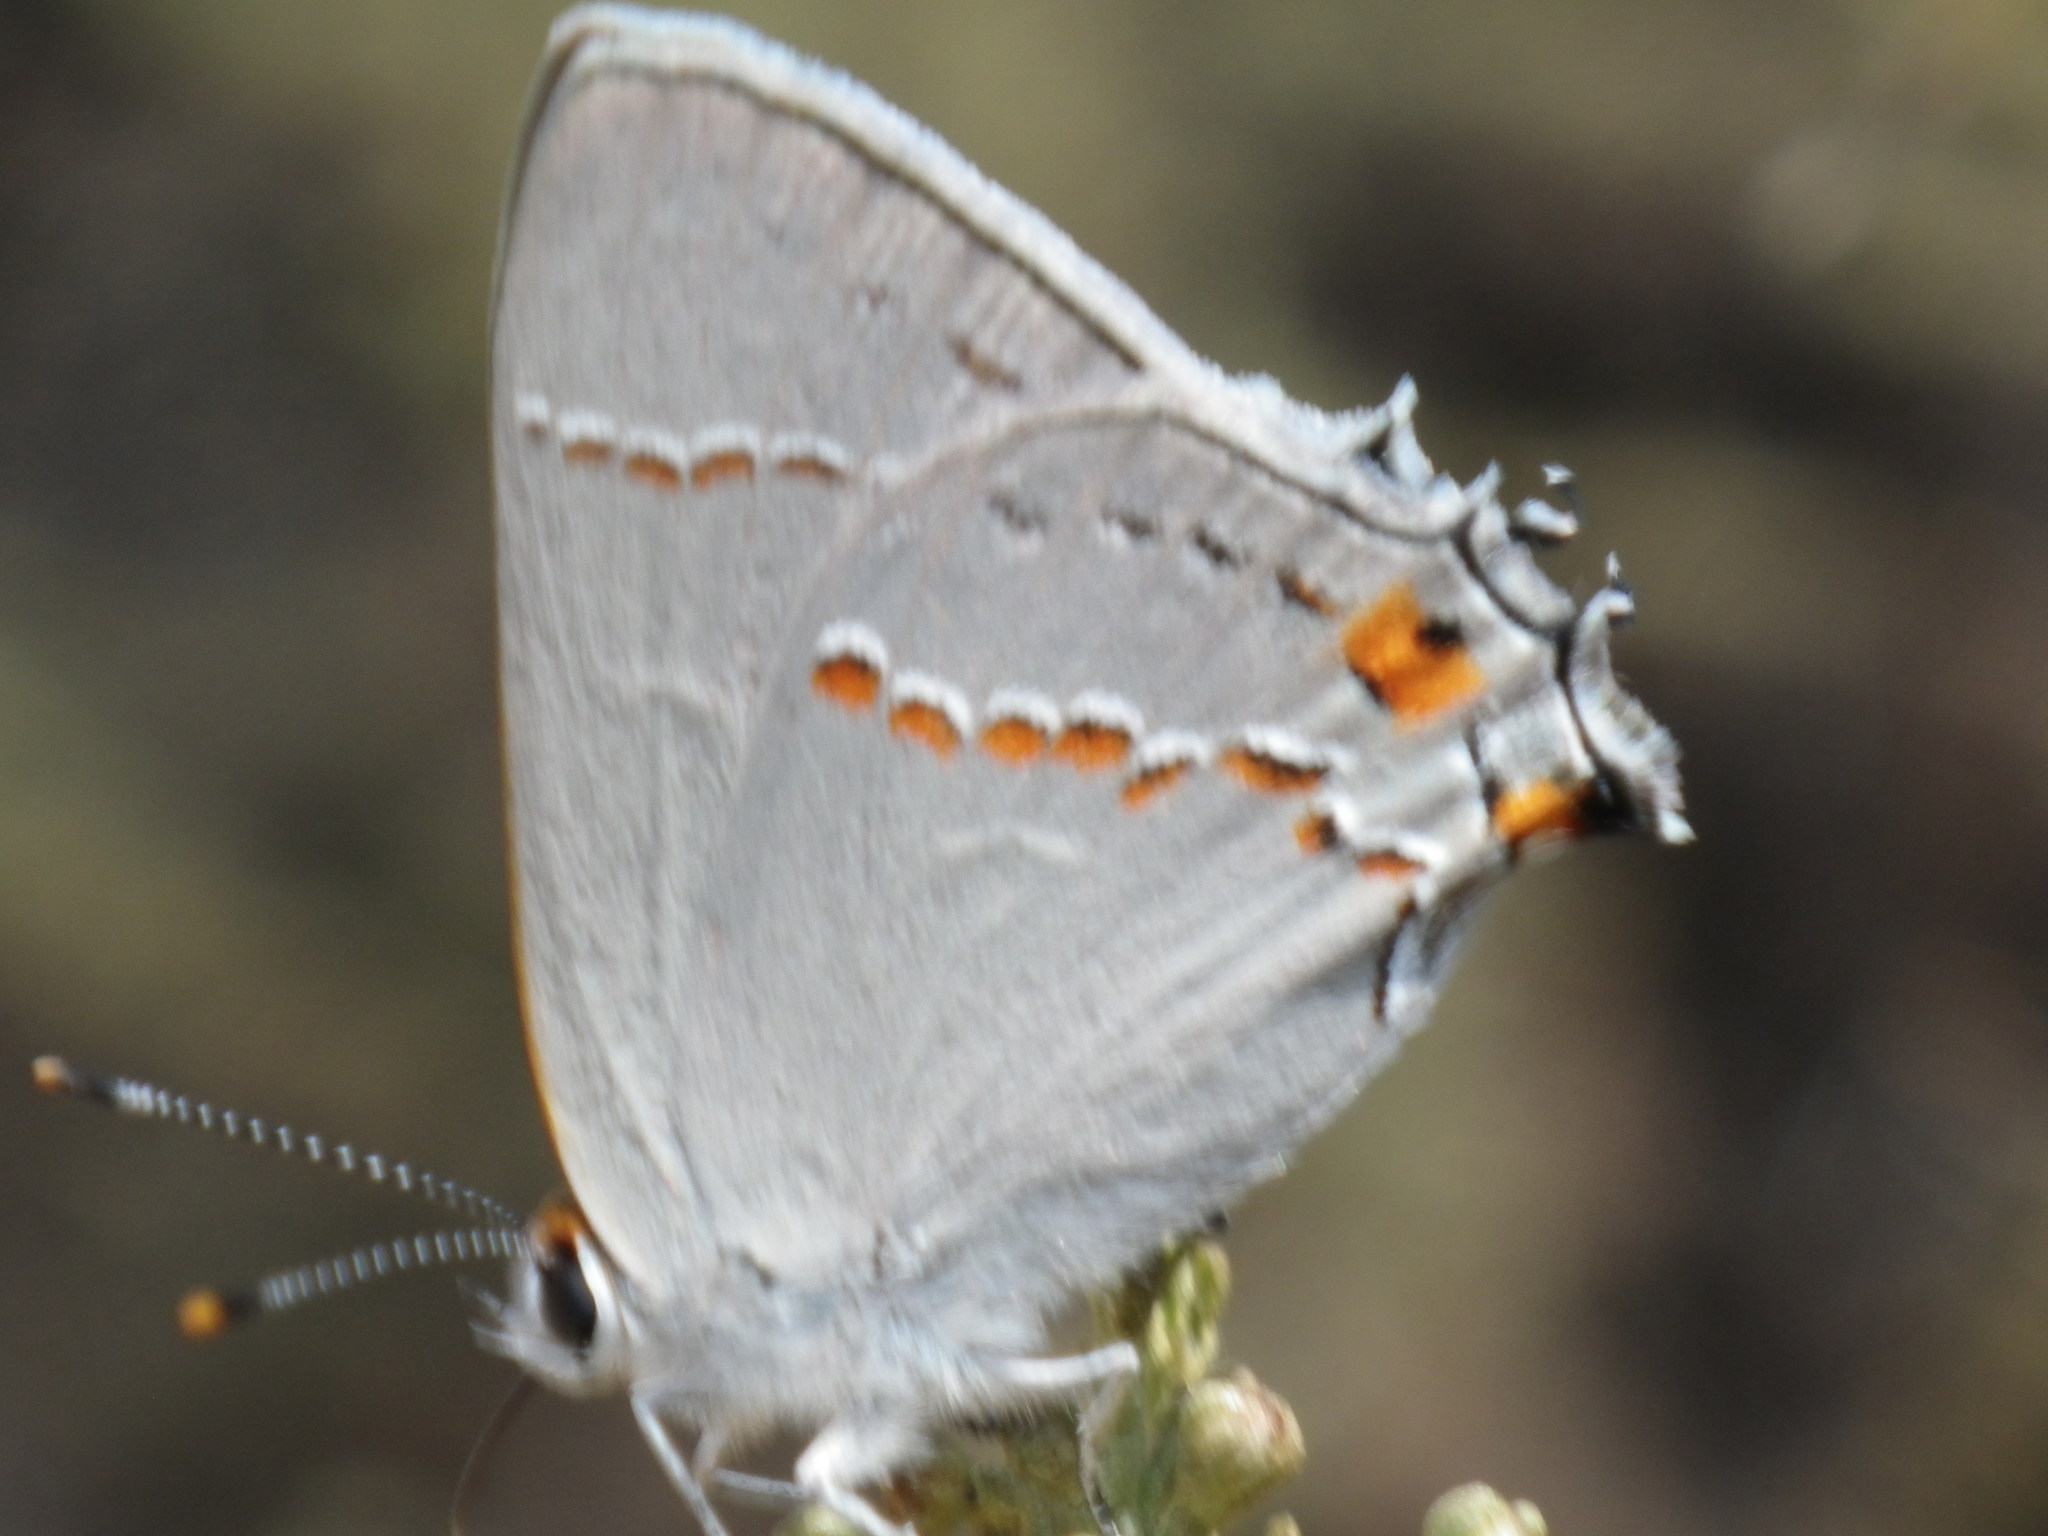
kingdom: Animalia
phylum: Arthropoda
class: Insecta
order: Lepidoptera
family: Lycaenidae
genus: Strymon
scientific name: Strymon melinus
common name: Gray hairstreak
